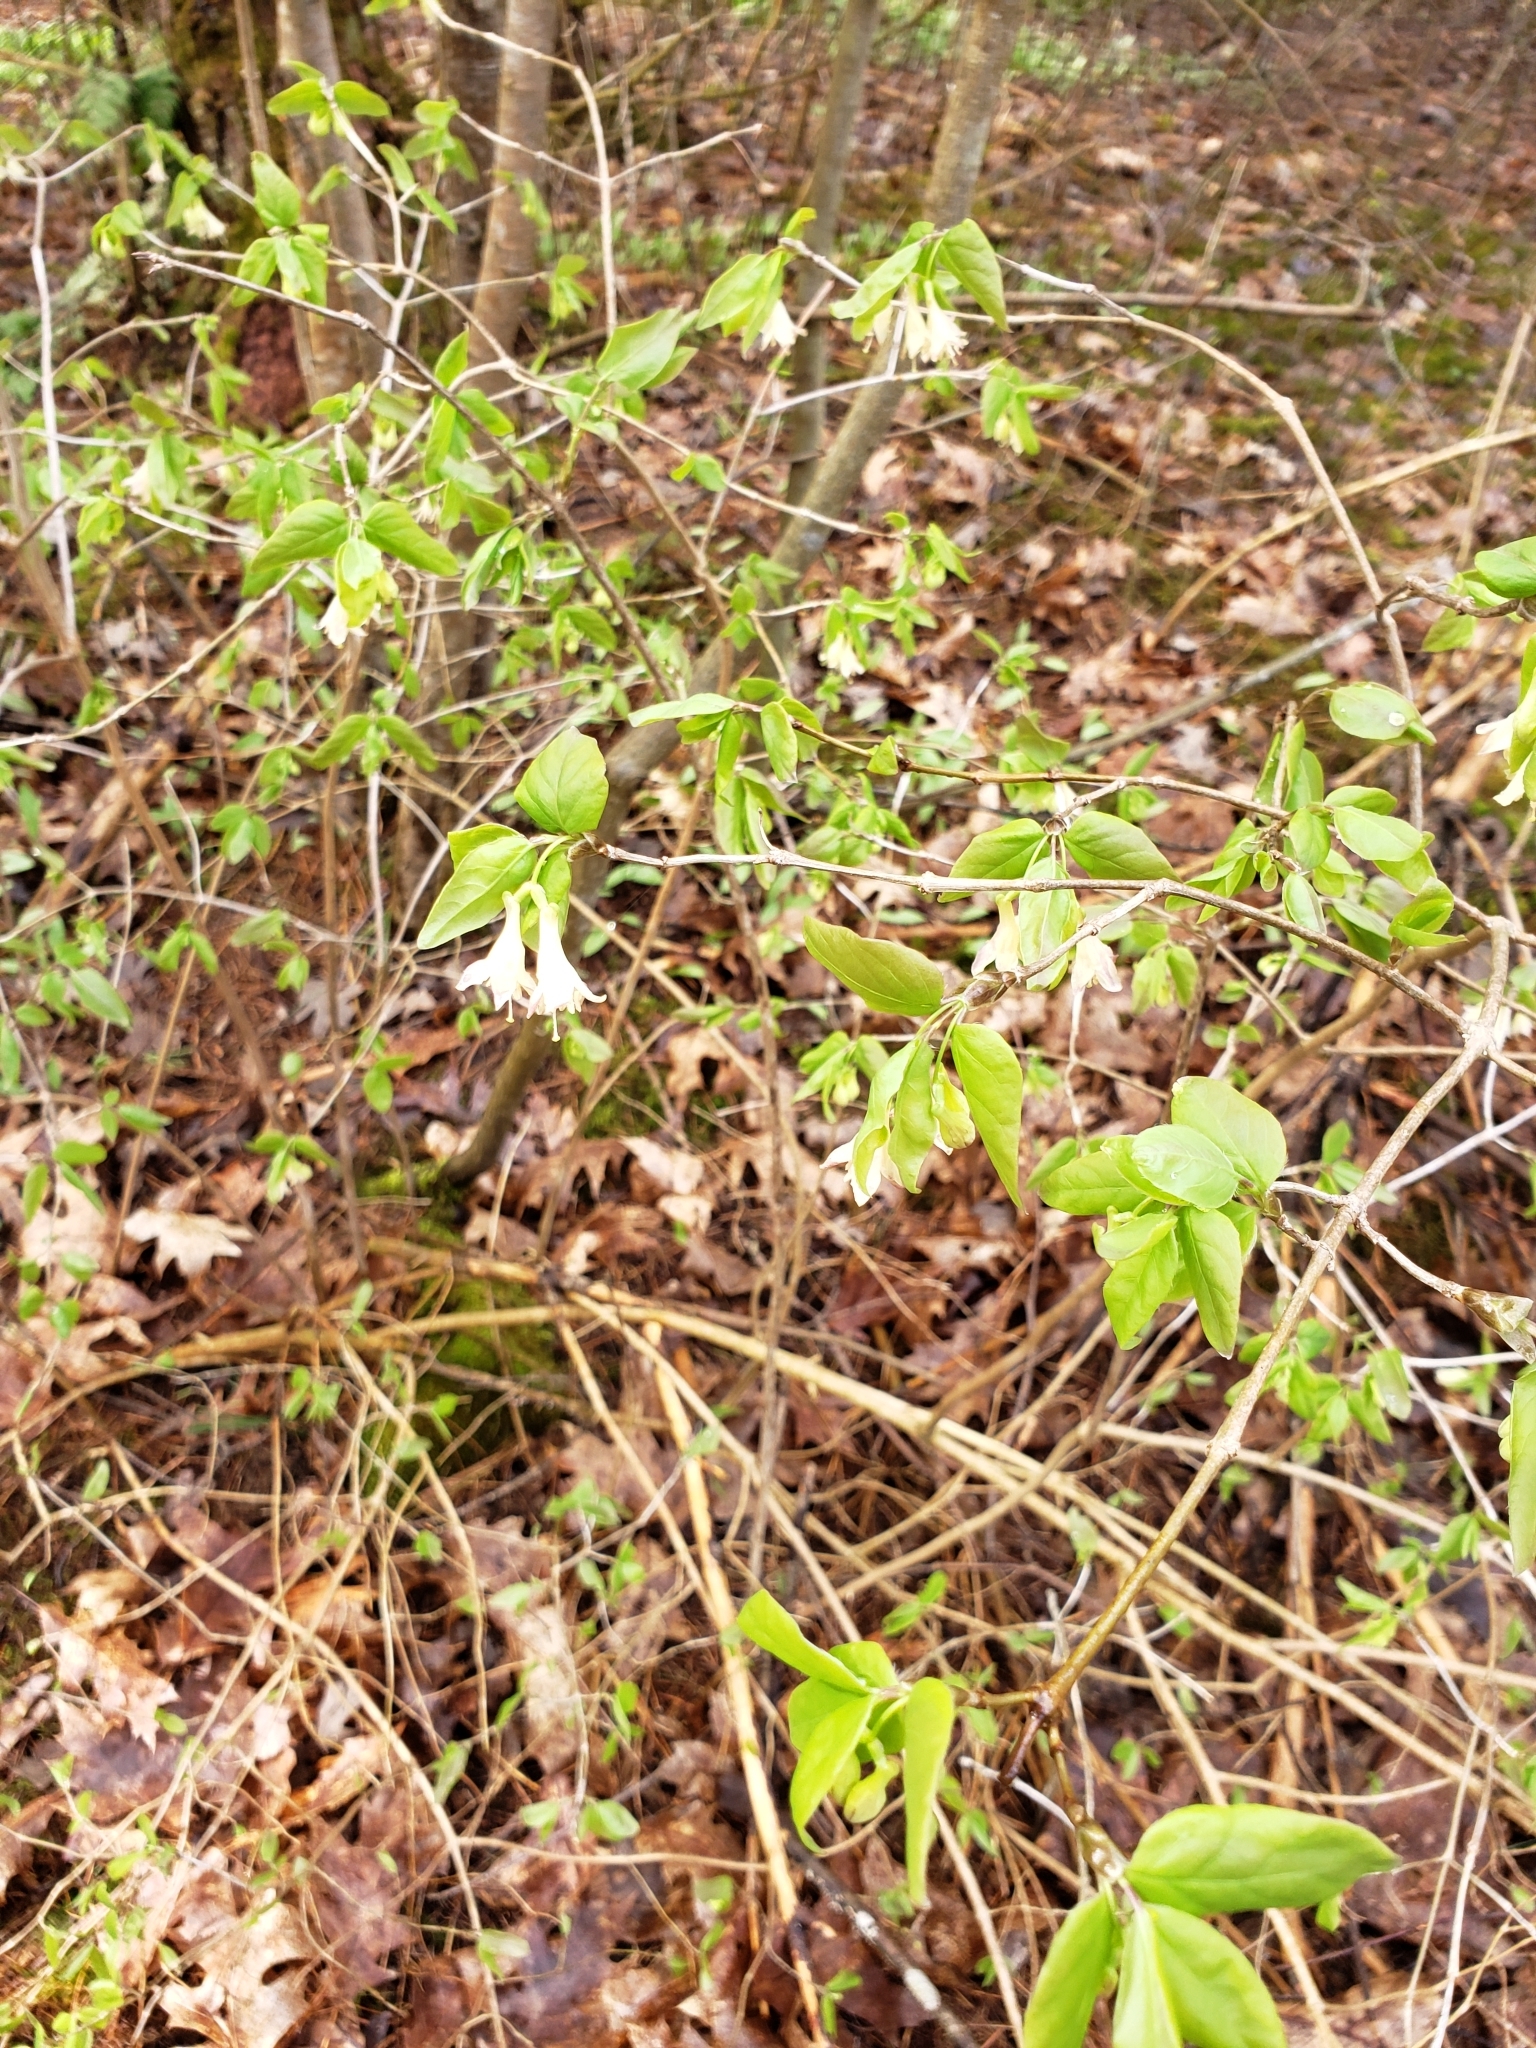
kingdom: Plantae
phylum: Tracheophyta
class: Magnoliopsida
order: Dipsacales
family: Caprifoliaceae
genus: Lonicera
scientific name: Lonicera canadensis
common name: American fly-honeysuckle
